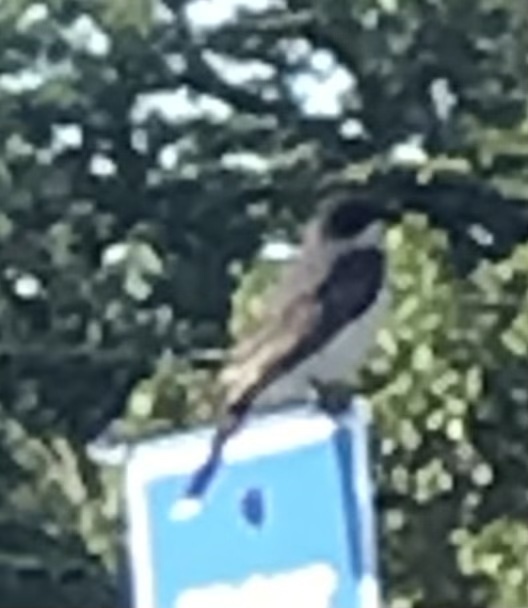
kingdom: Animalia
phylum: Chordata
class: Aves
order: Passeriformes
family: Tyrannidae
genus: Tyrannus
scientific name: Tyrannus tyrannus
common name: Eastern kingbird
